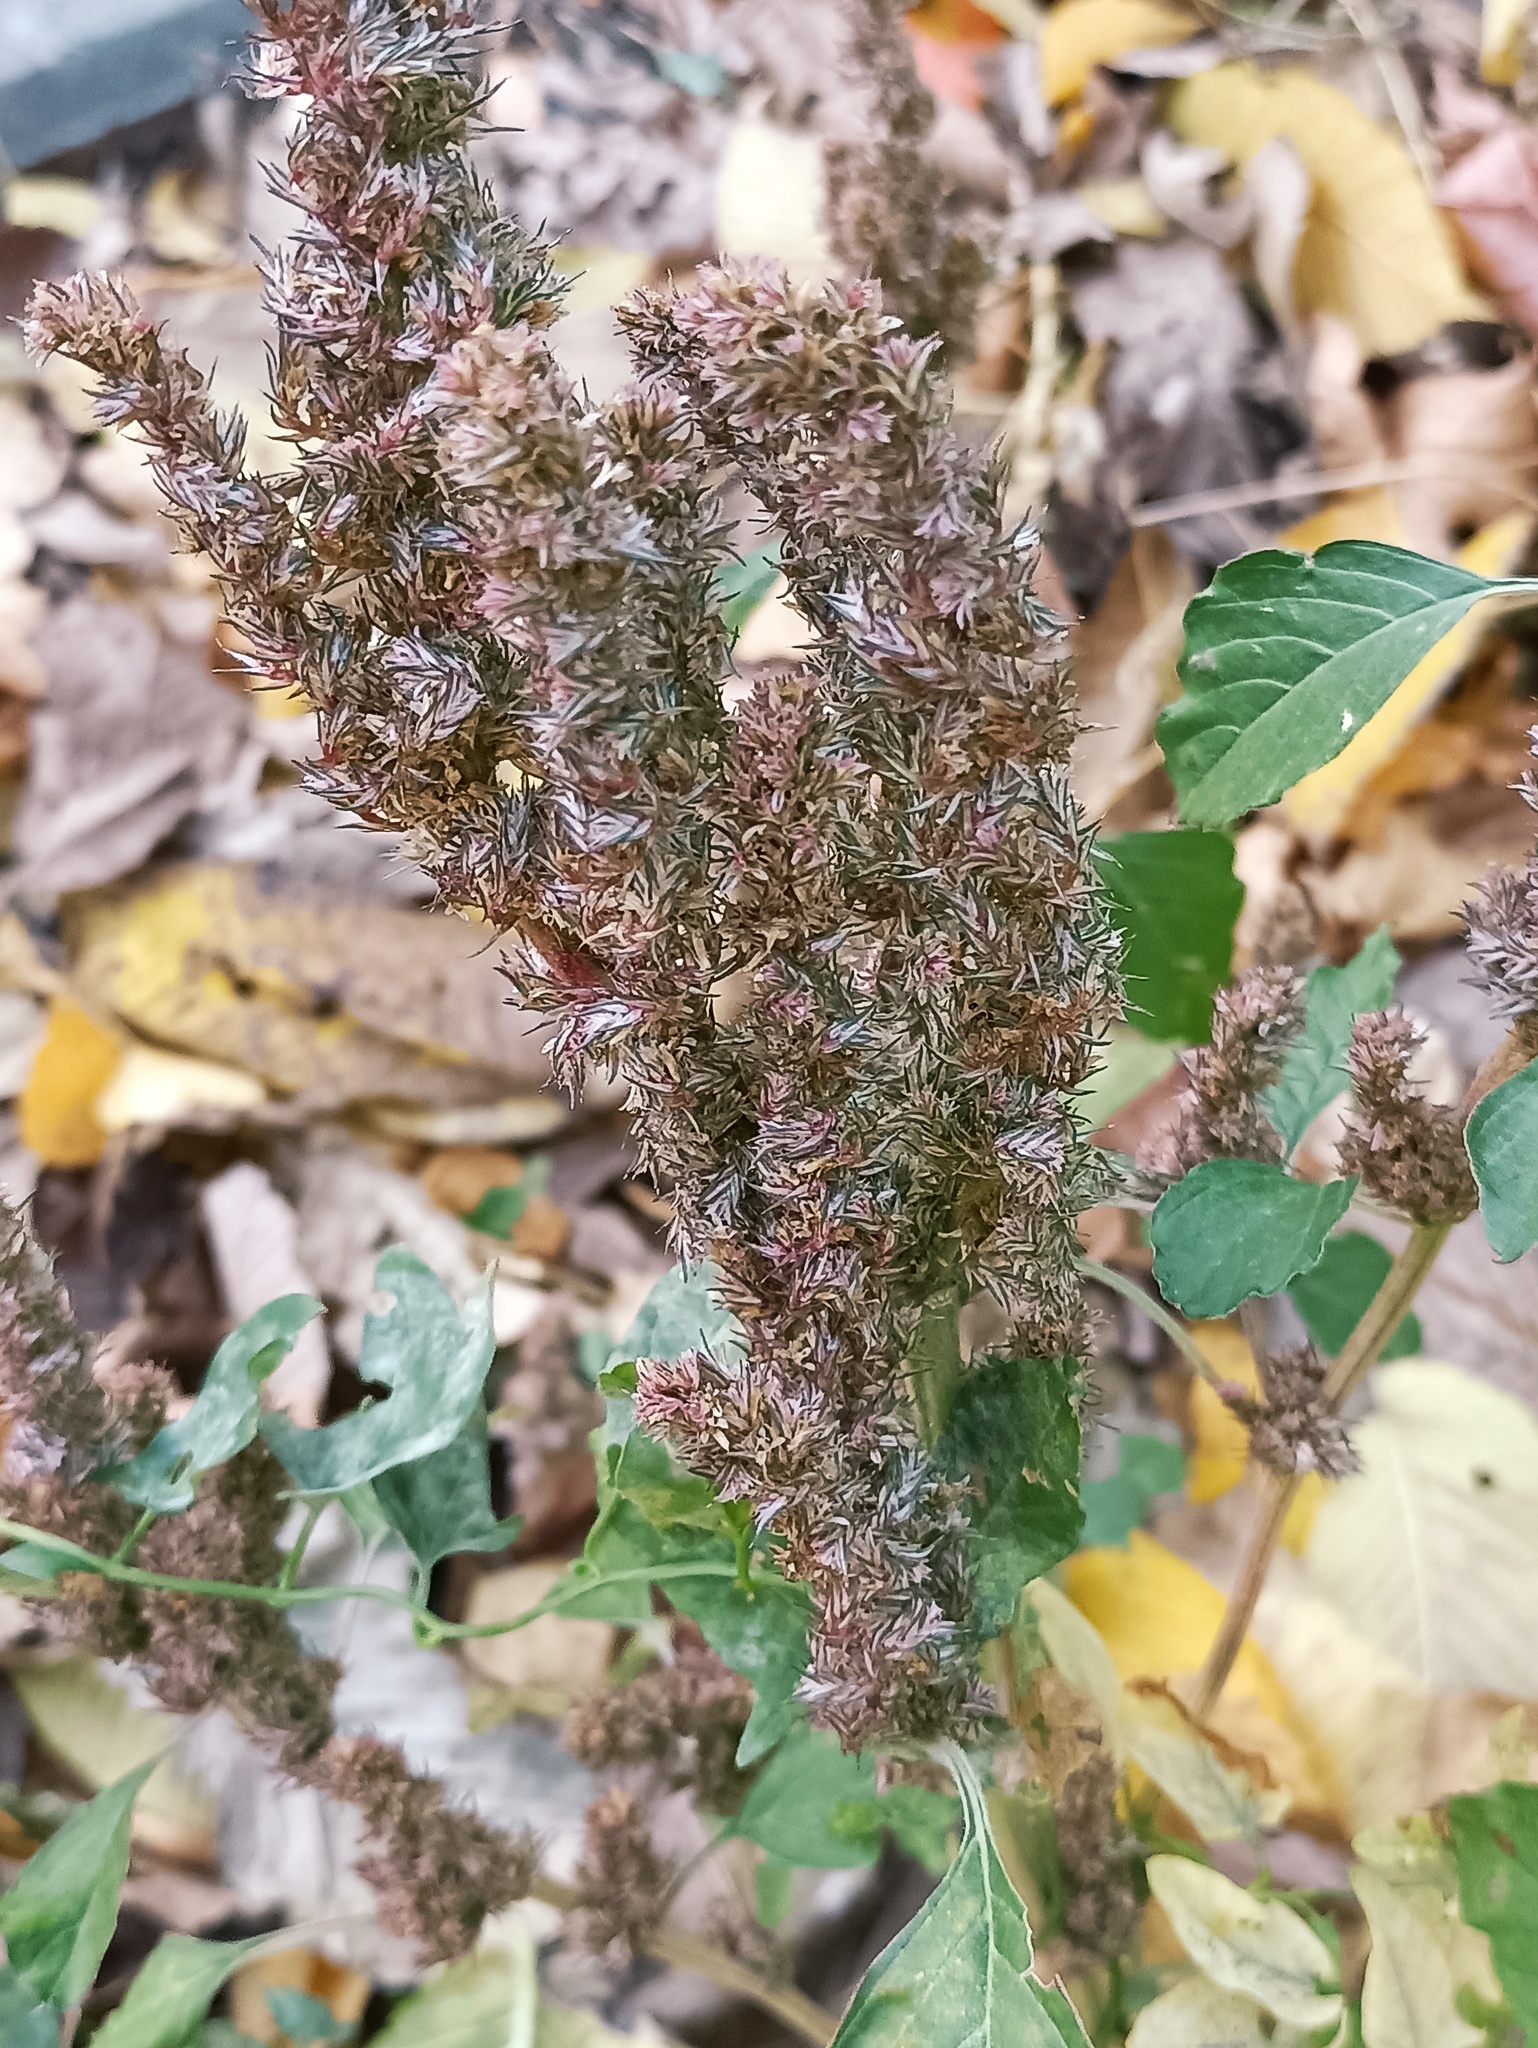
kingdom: Plantae
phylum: Tracheophyta
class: Magnoliopsida
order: Caryophyllales
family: Amaranthaceae
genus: Amaranthus
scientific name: Amaranthus retroflexus
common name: Redroot amaranth
